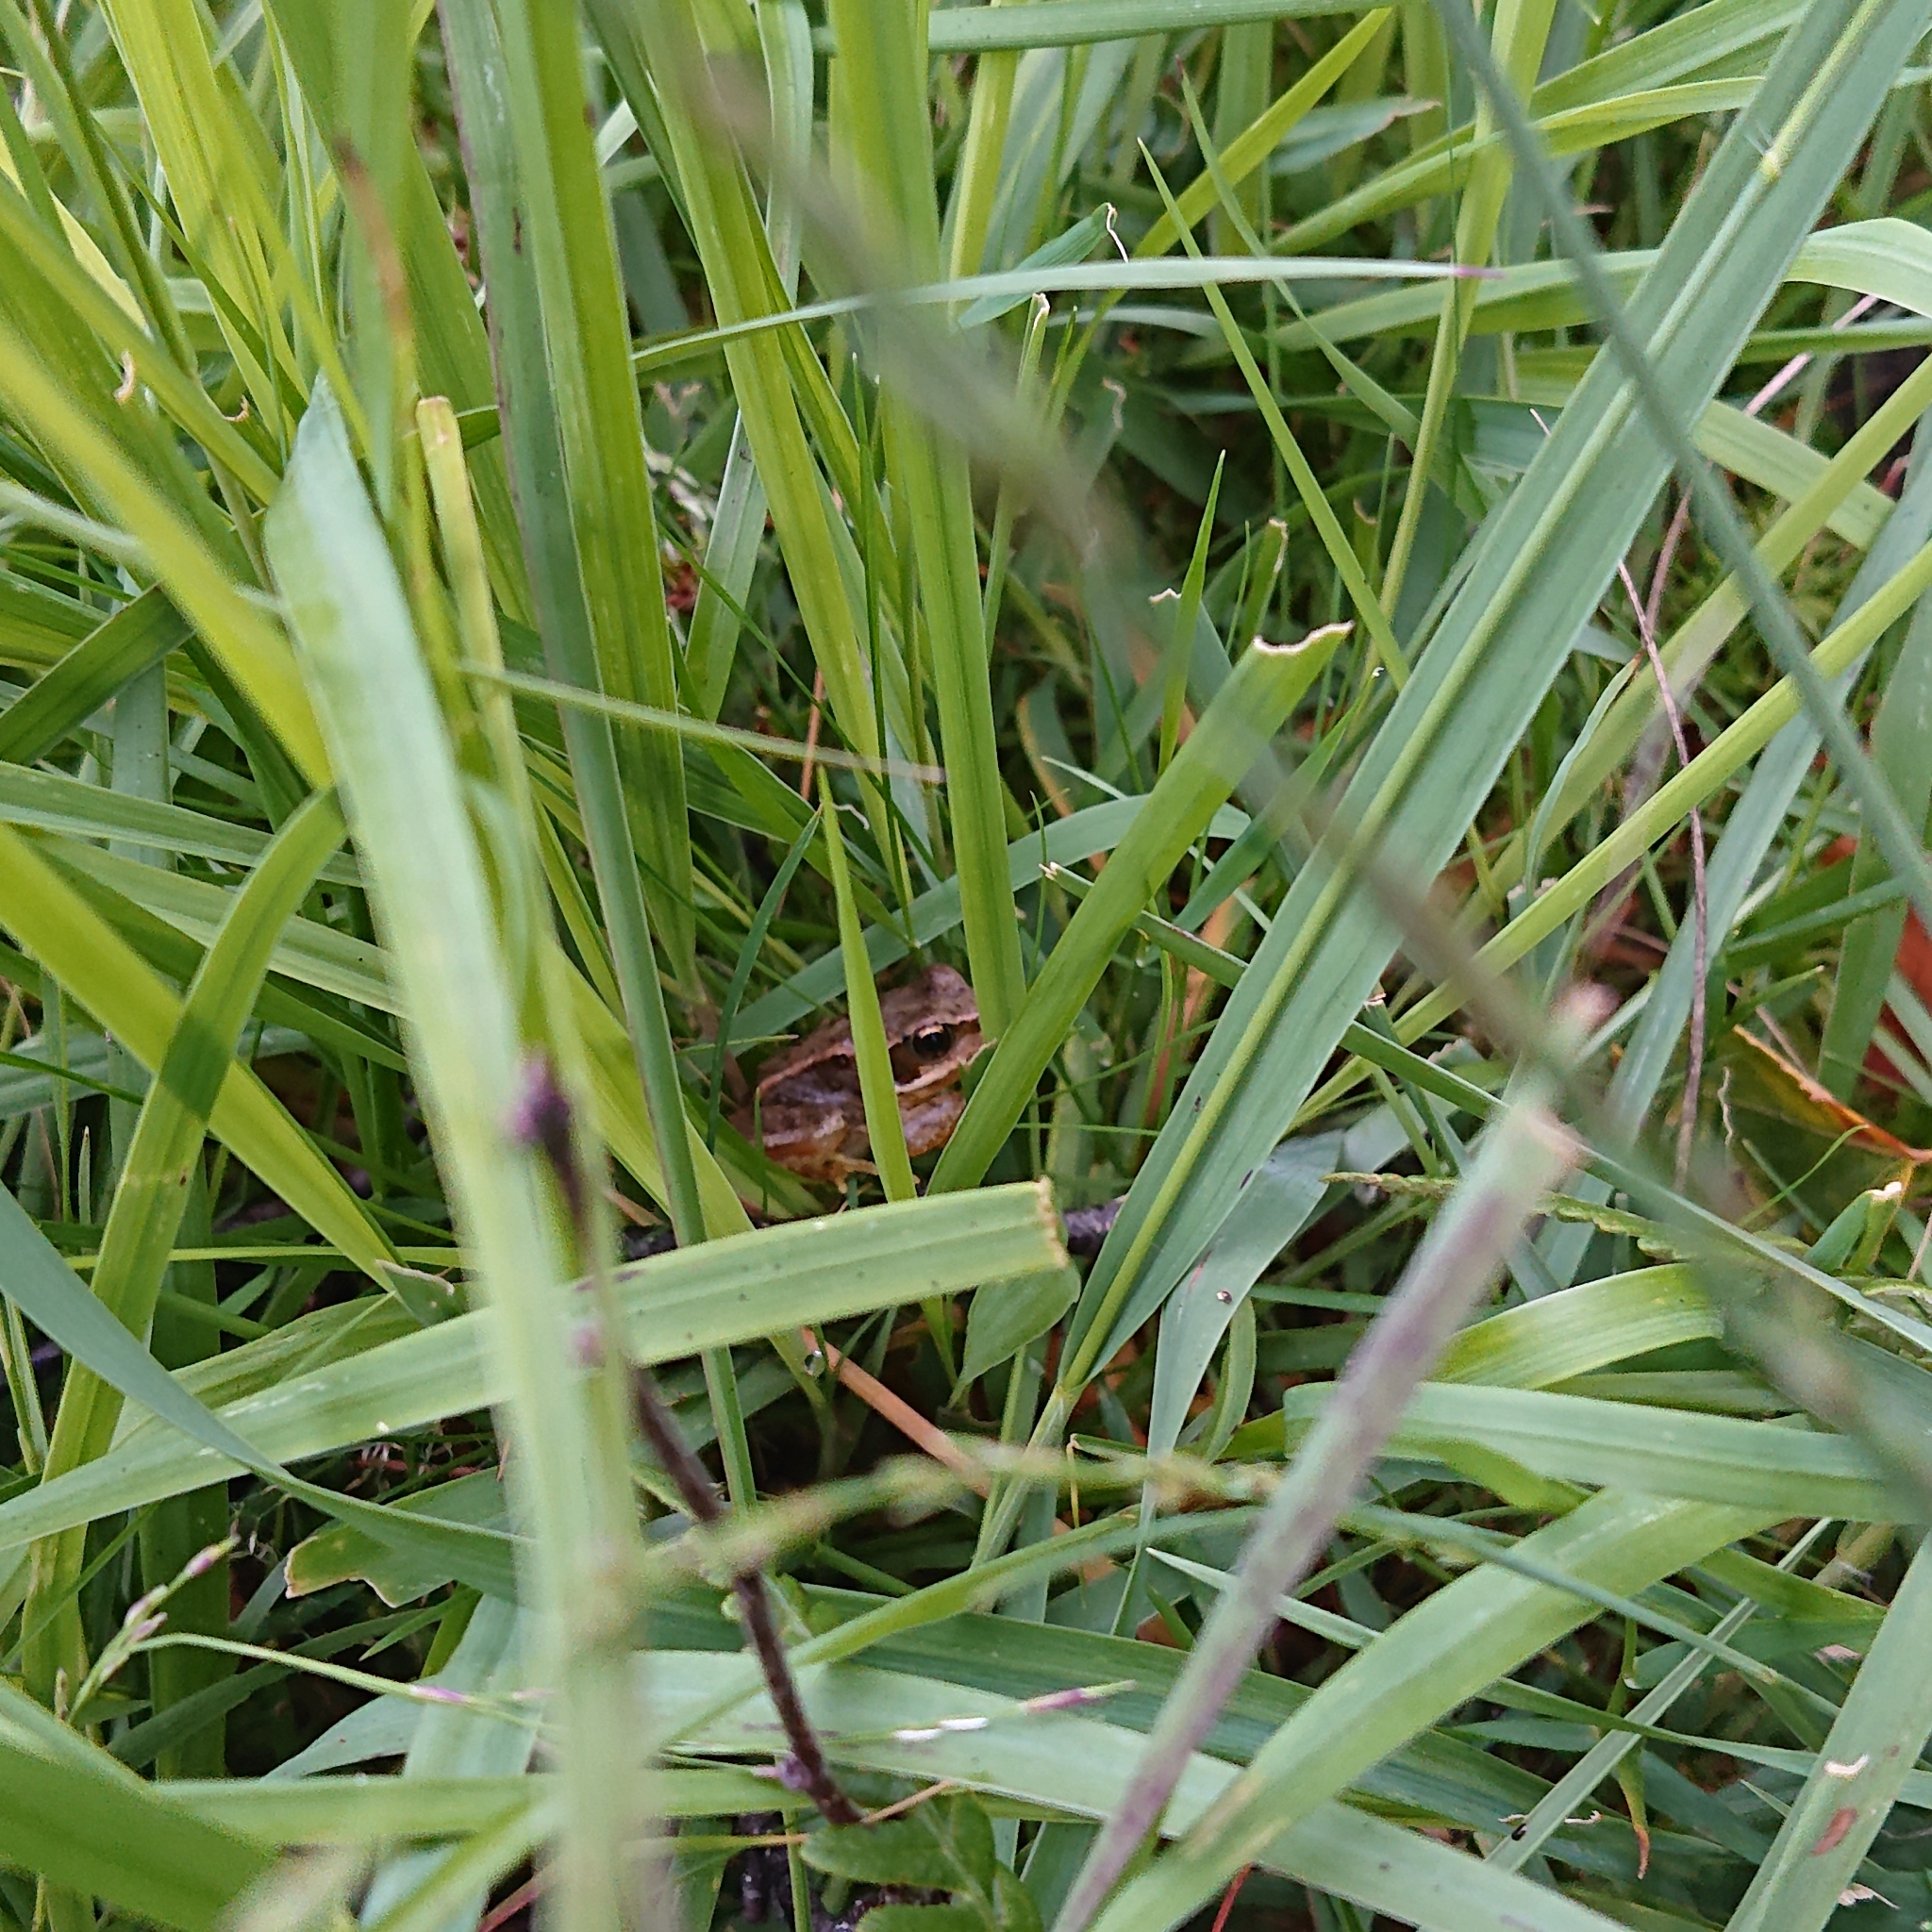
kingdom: Animalia
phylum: Chordata
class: Amphibia
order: Anura
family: Ranidae
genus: Rana
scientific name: Rana temporaria
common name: Common frog
